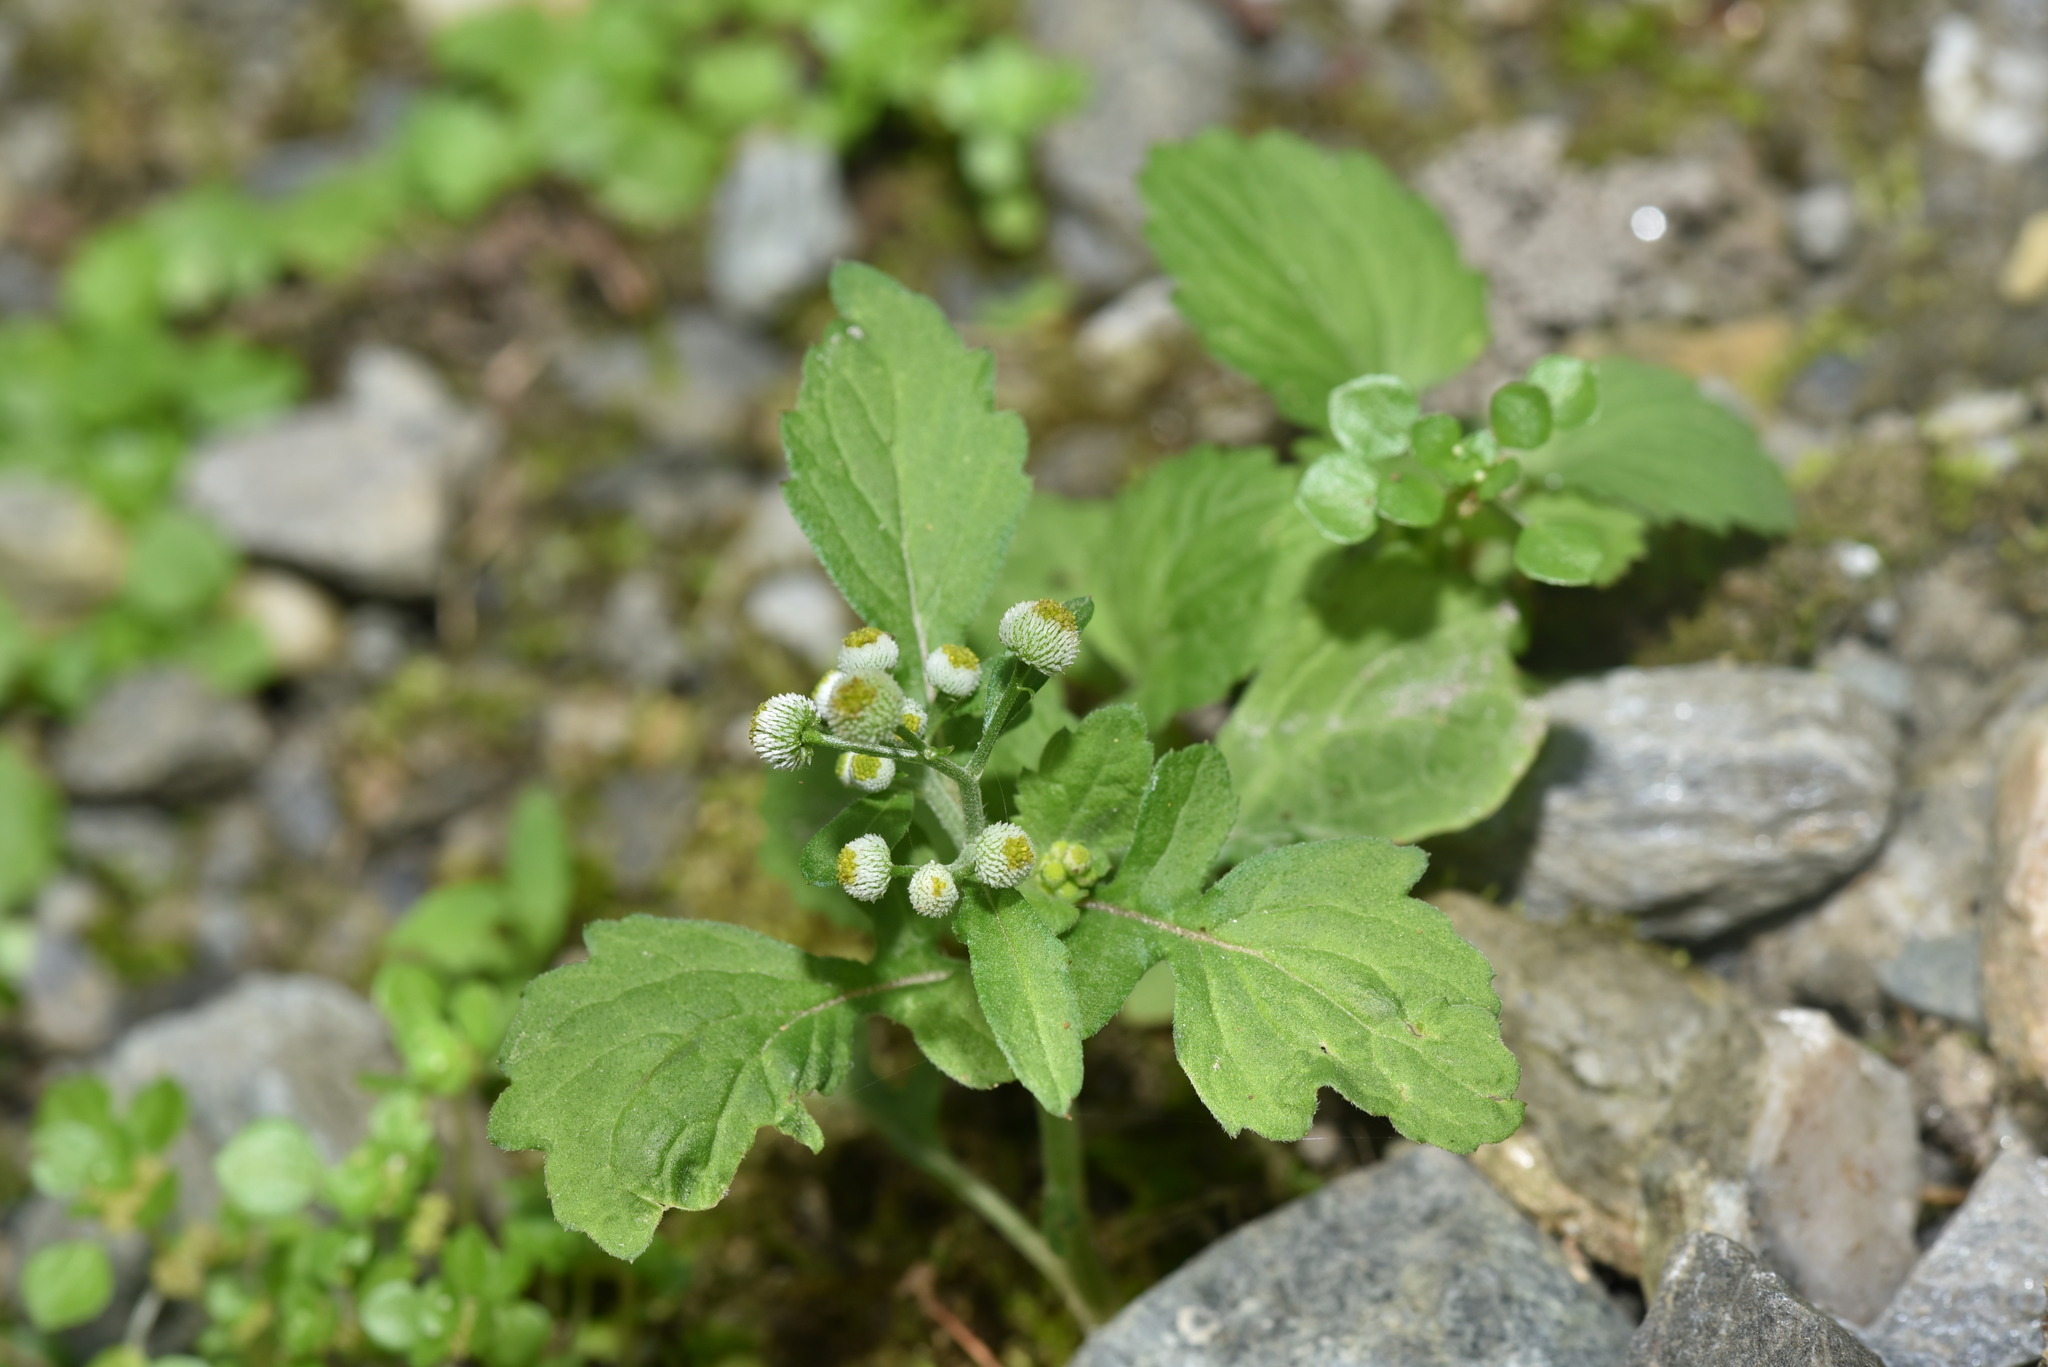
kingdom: Plantae
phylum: Tracheophyta
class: Magnoliopsida
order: Asterales
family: Asteraceae
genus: Dichrocephala
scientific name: Dichrocephala integrifolia
